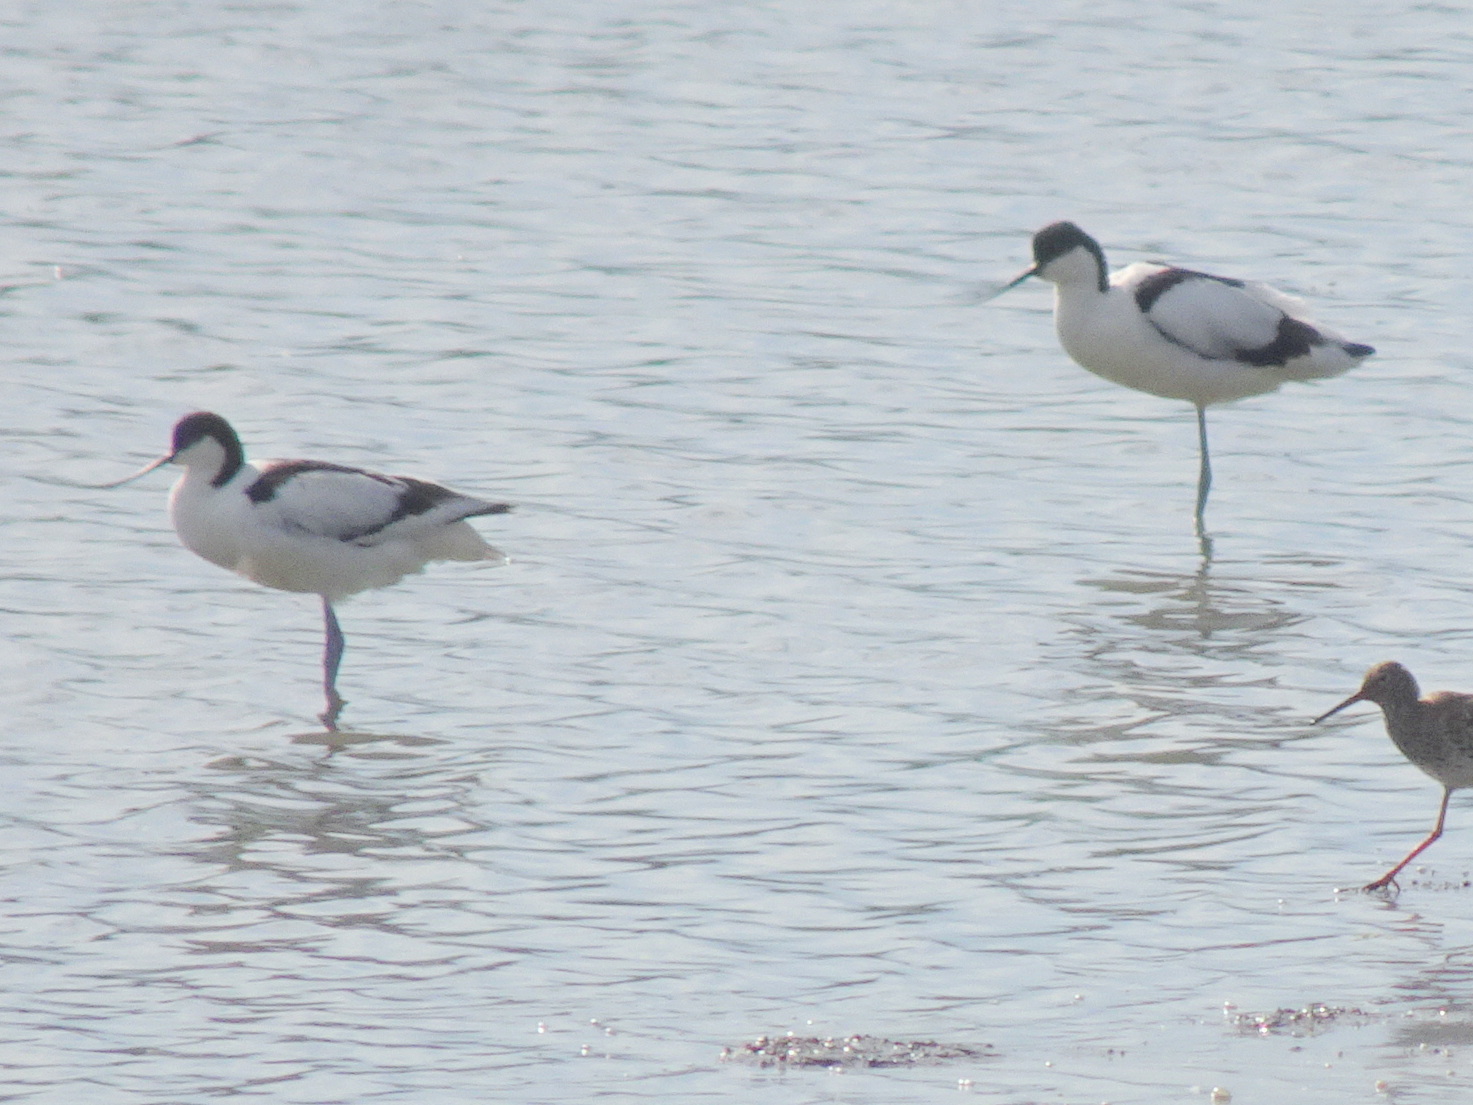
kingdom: Animalia
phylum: Chordata
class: Aves
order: Charadriiformes
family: Recurvirostridae
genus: Recurvirostra
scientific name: Recurvirostra avosetta
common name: Pied avocet
